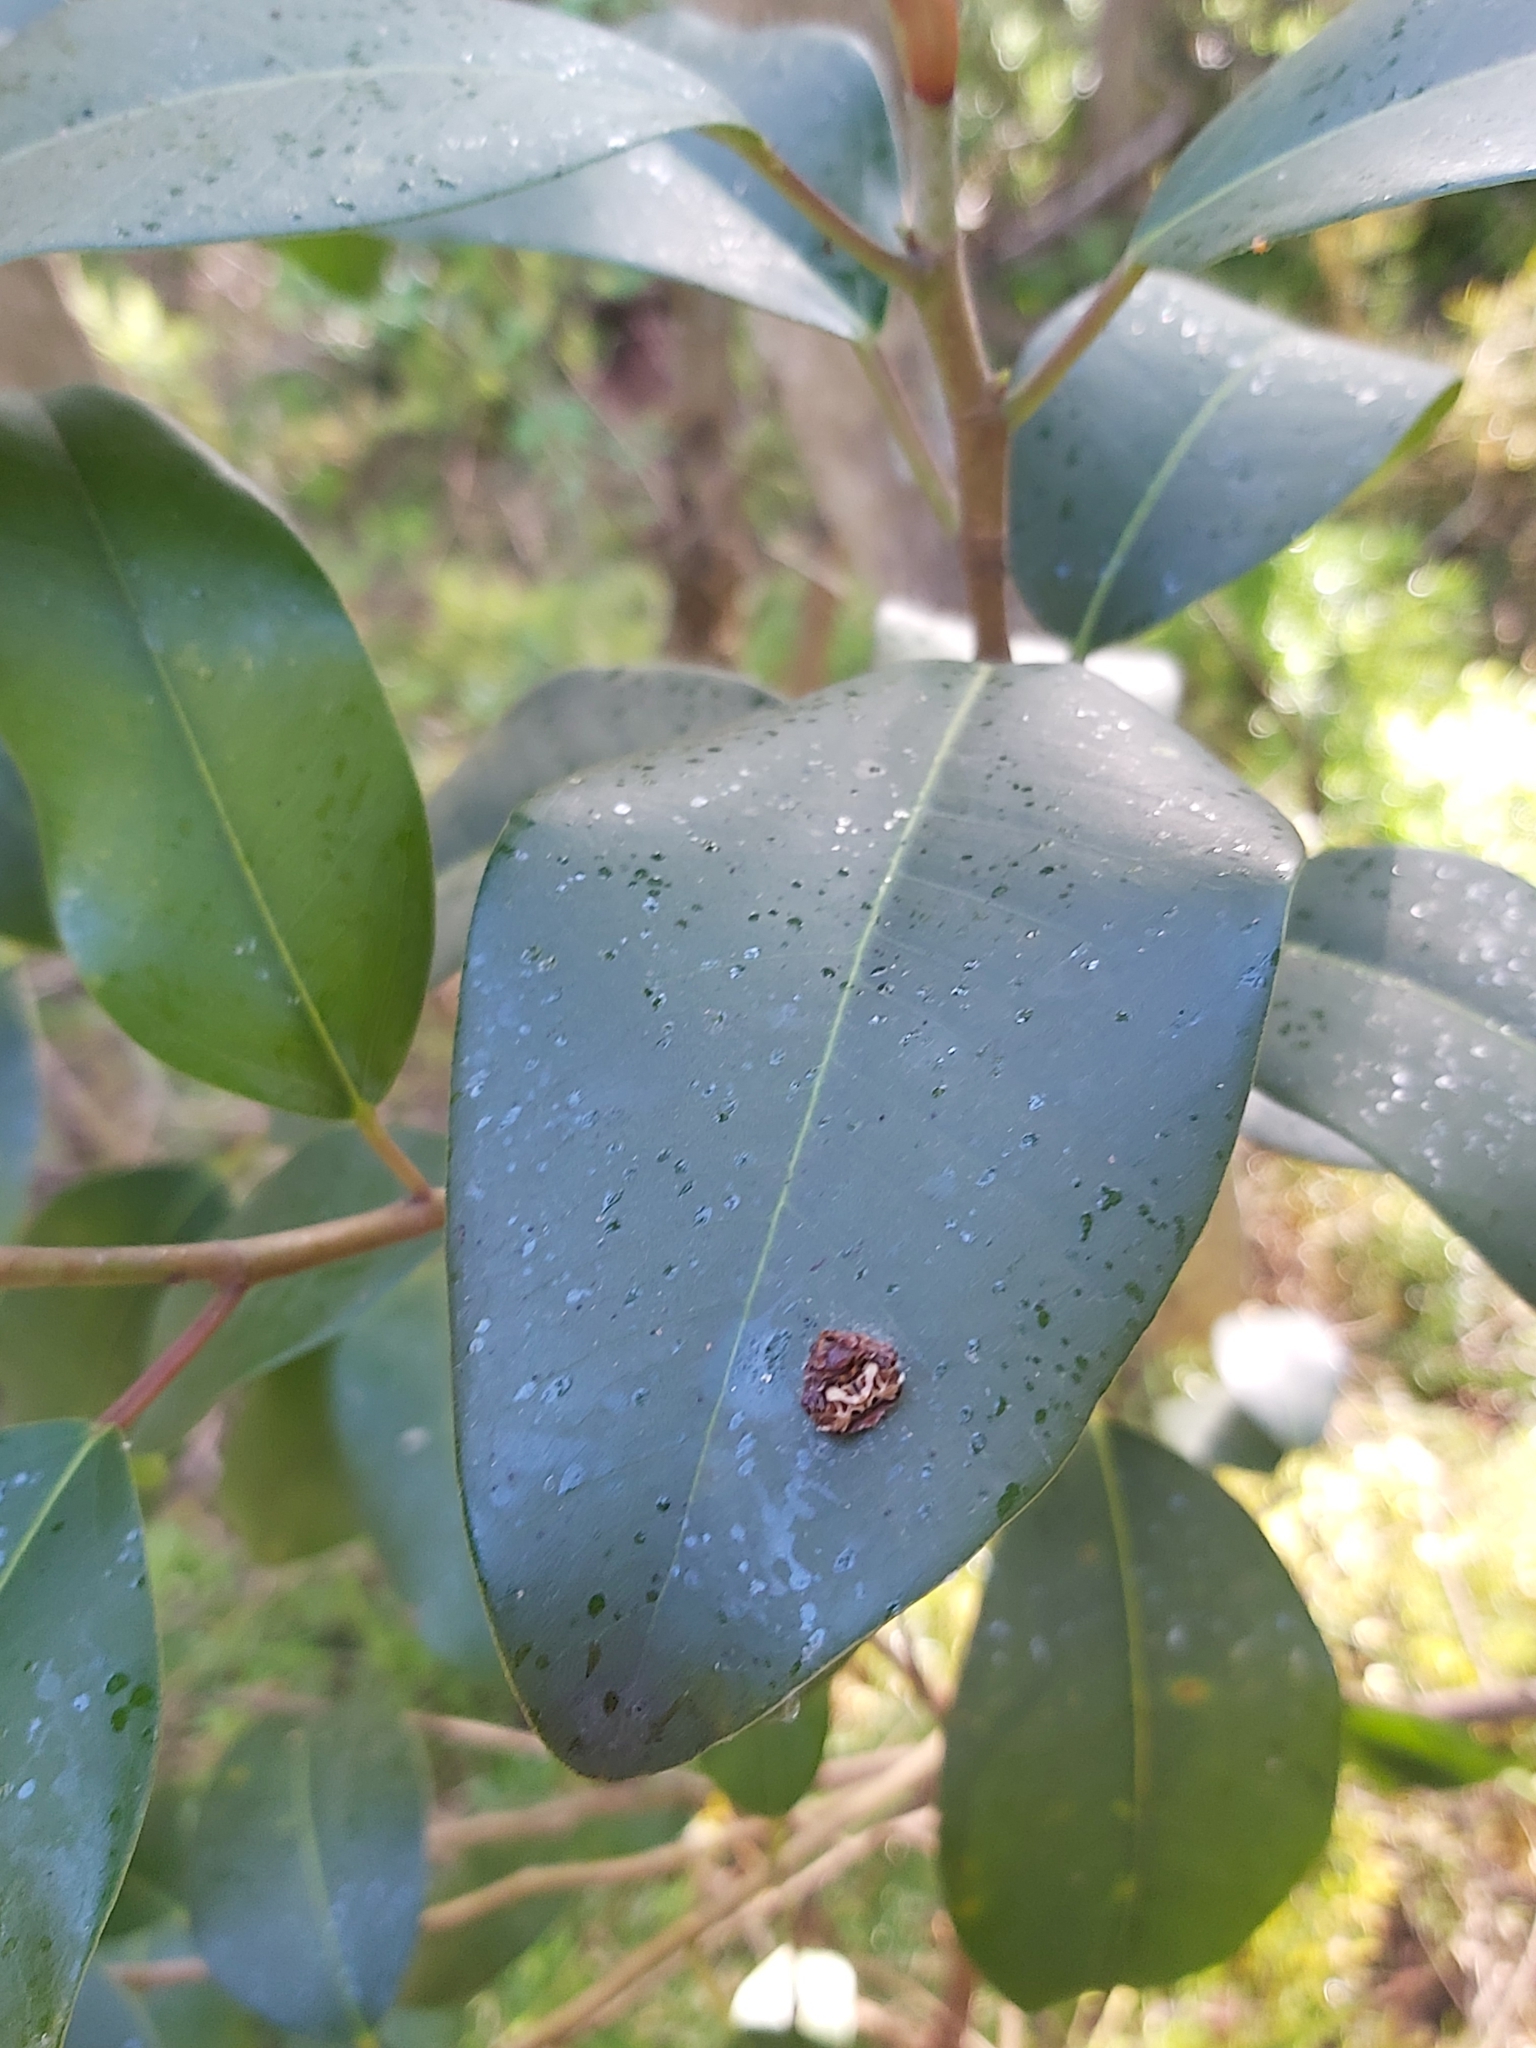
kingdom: Animalia
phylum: Arthropoda
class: Arachnida
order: Araneae
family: Arkyidae
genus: Arkys
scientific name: Arkys curtulus
